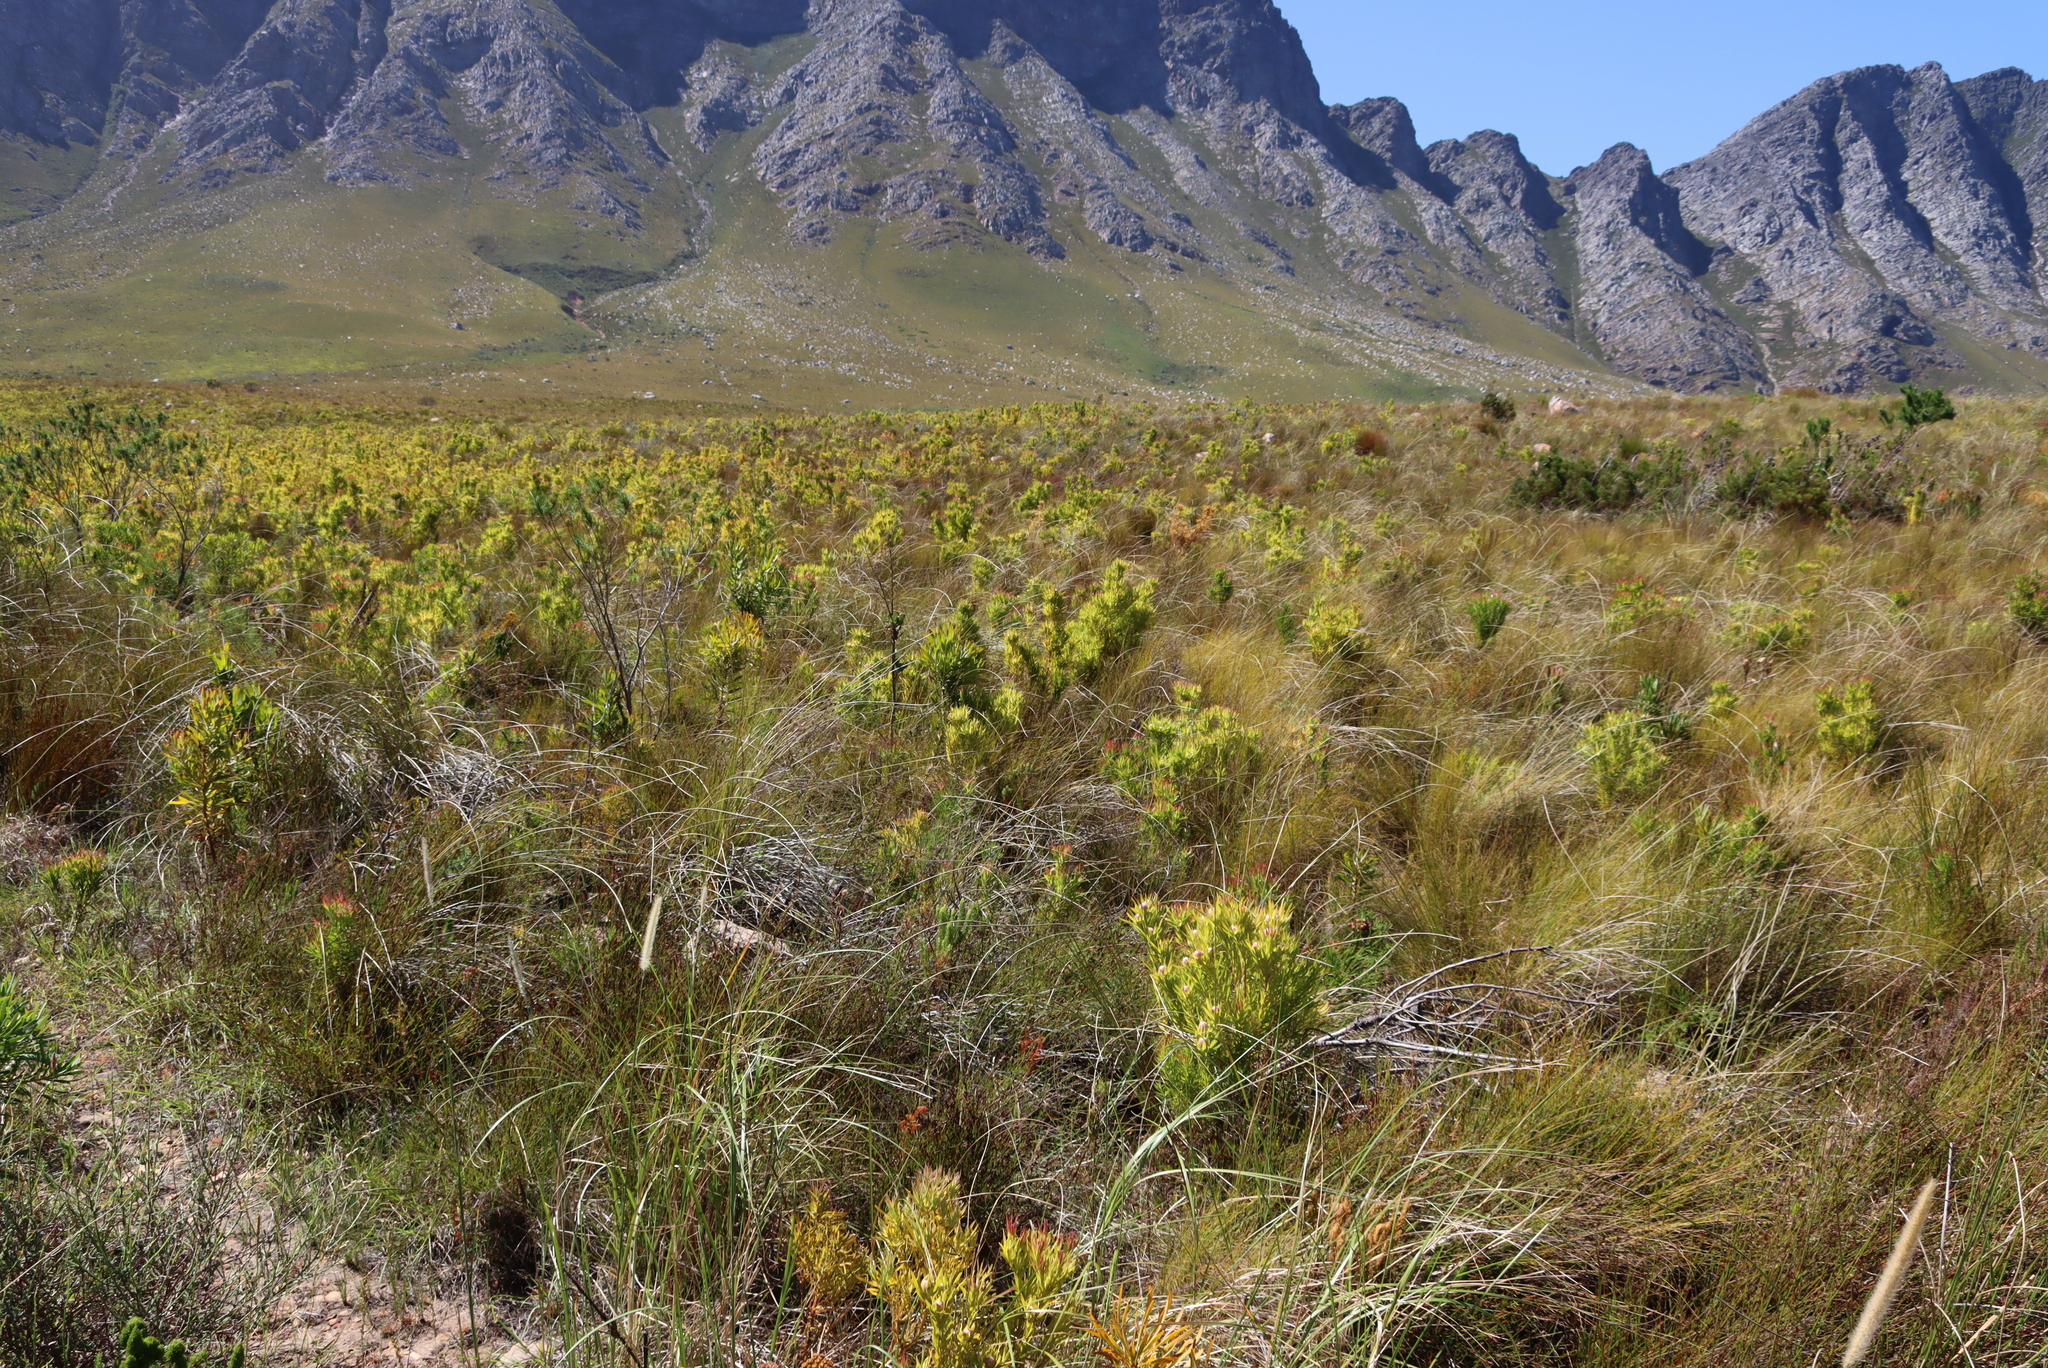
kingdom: Plantae
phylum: Tracheophyta
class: Magnoliopsida
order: Proteales
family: Proteaceae
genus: Leucadendron
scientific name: Leucadendron xanthoconus
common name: Sickle-leaf conebush
